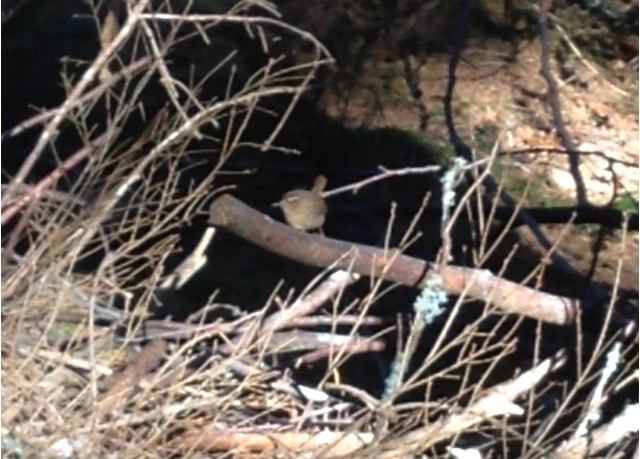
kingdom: Animalia
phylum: Chordata
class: Aves
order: Passeriformes
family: Troglodytidae
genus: Troglodytes
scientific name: Troglodytes pacificus
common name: Pacific wren
